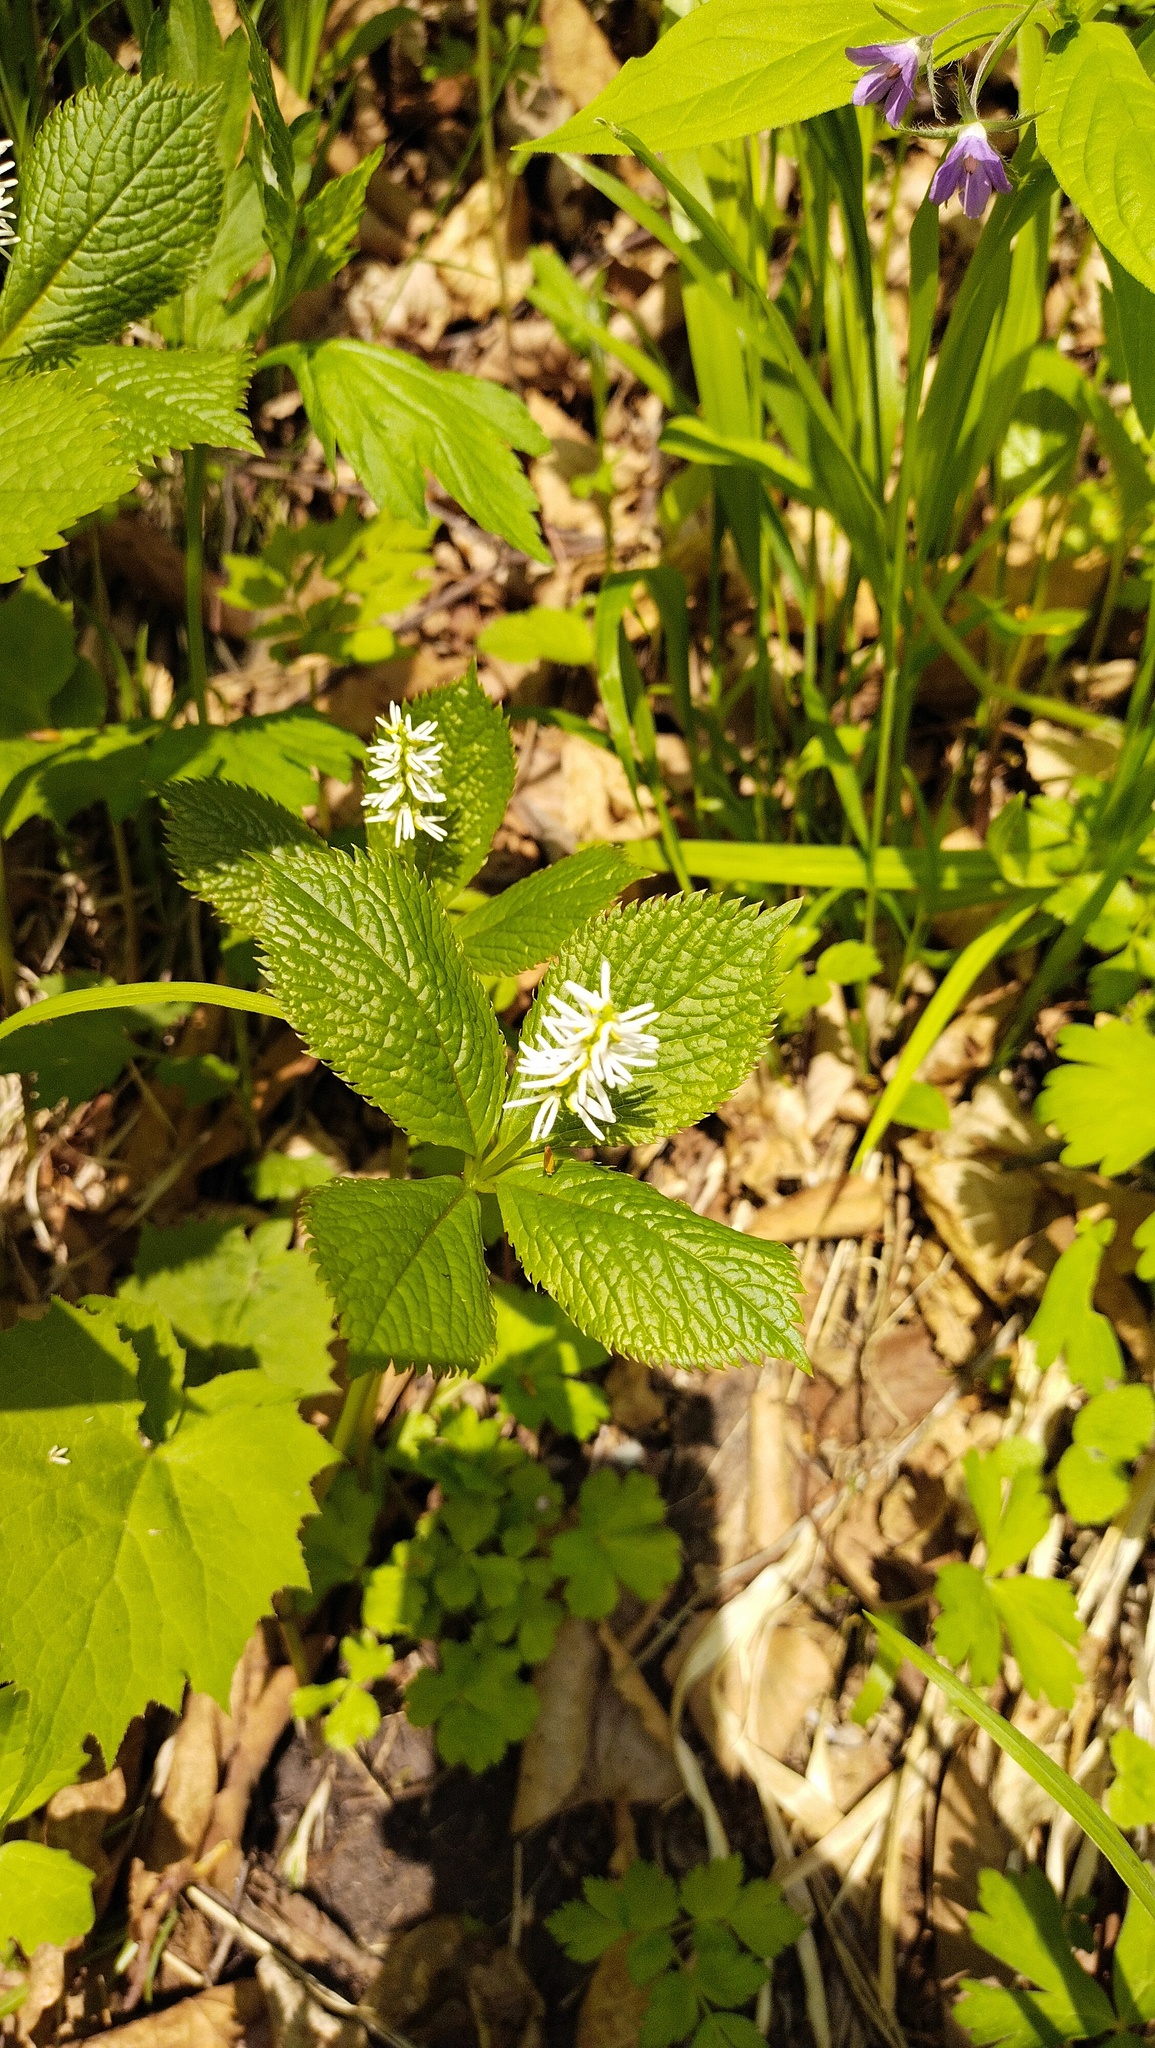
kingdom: Plantae
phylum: Tracheophyta
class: Magnoliopsida
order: Chloranthales
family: Chloranthaceae
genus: Chloranthus
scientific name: Chloranthus quadrifolius
